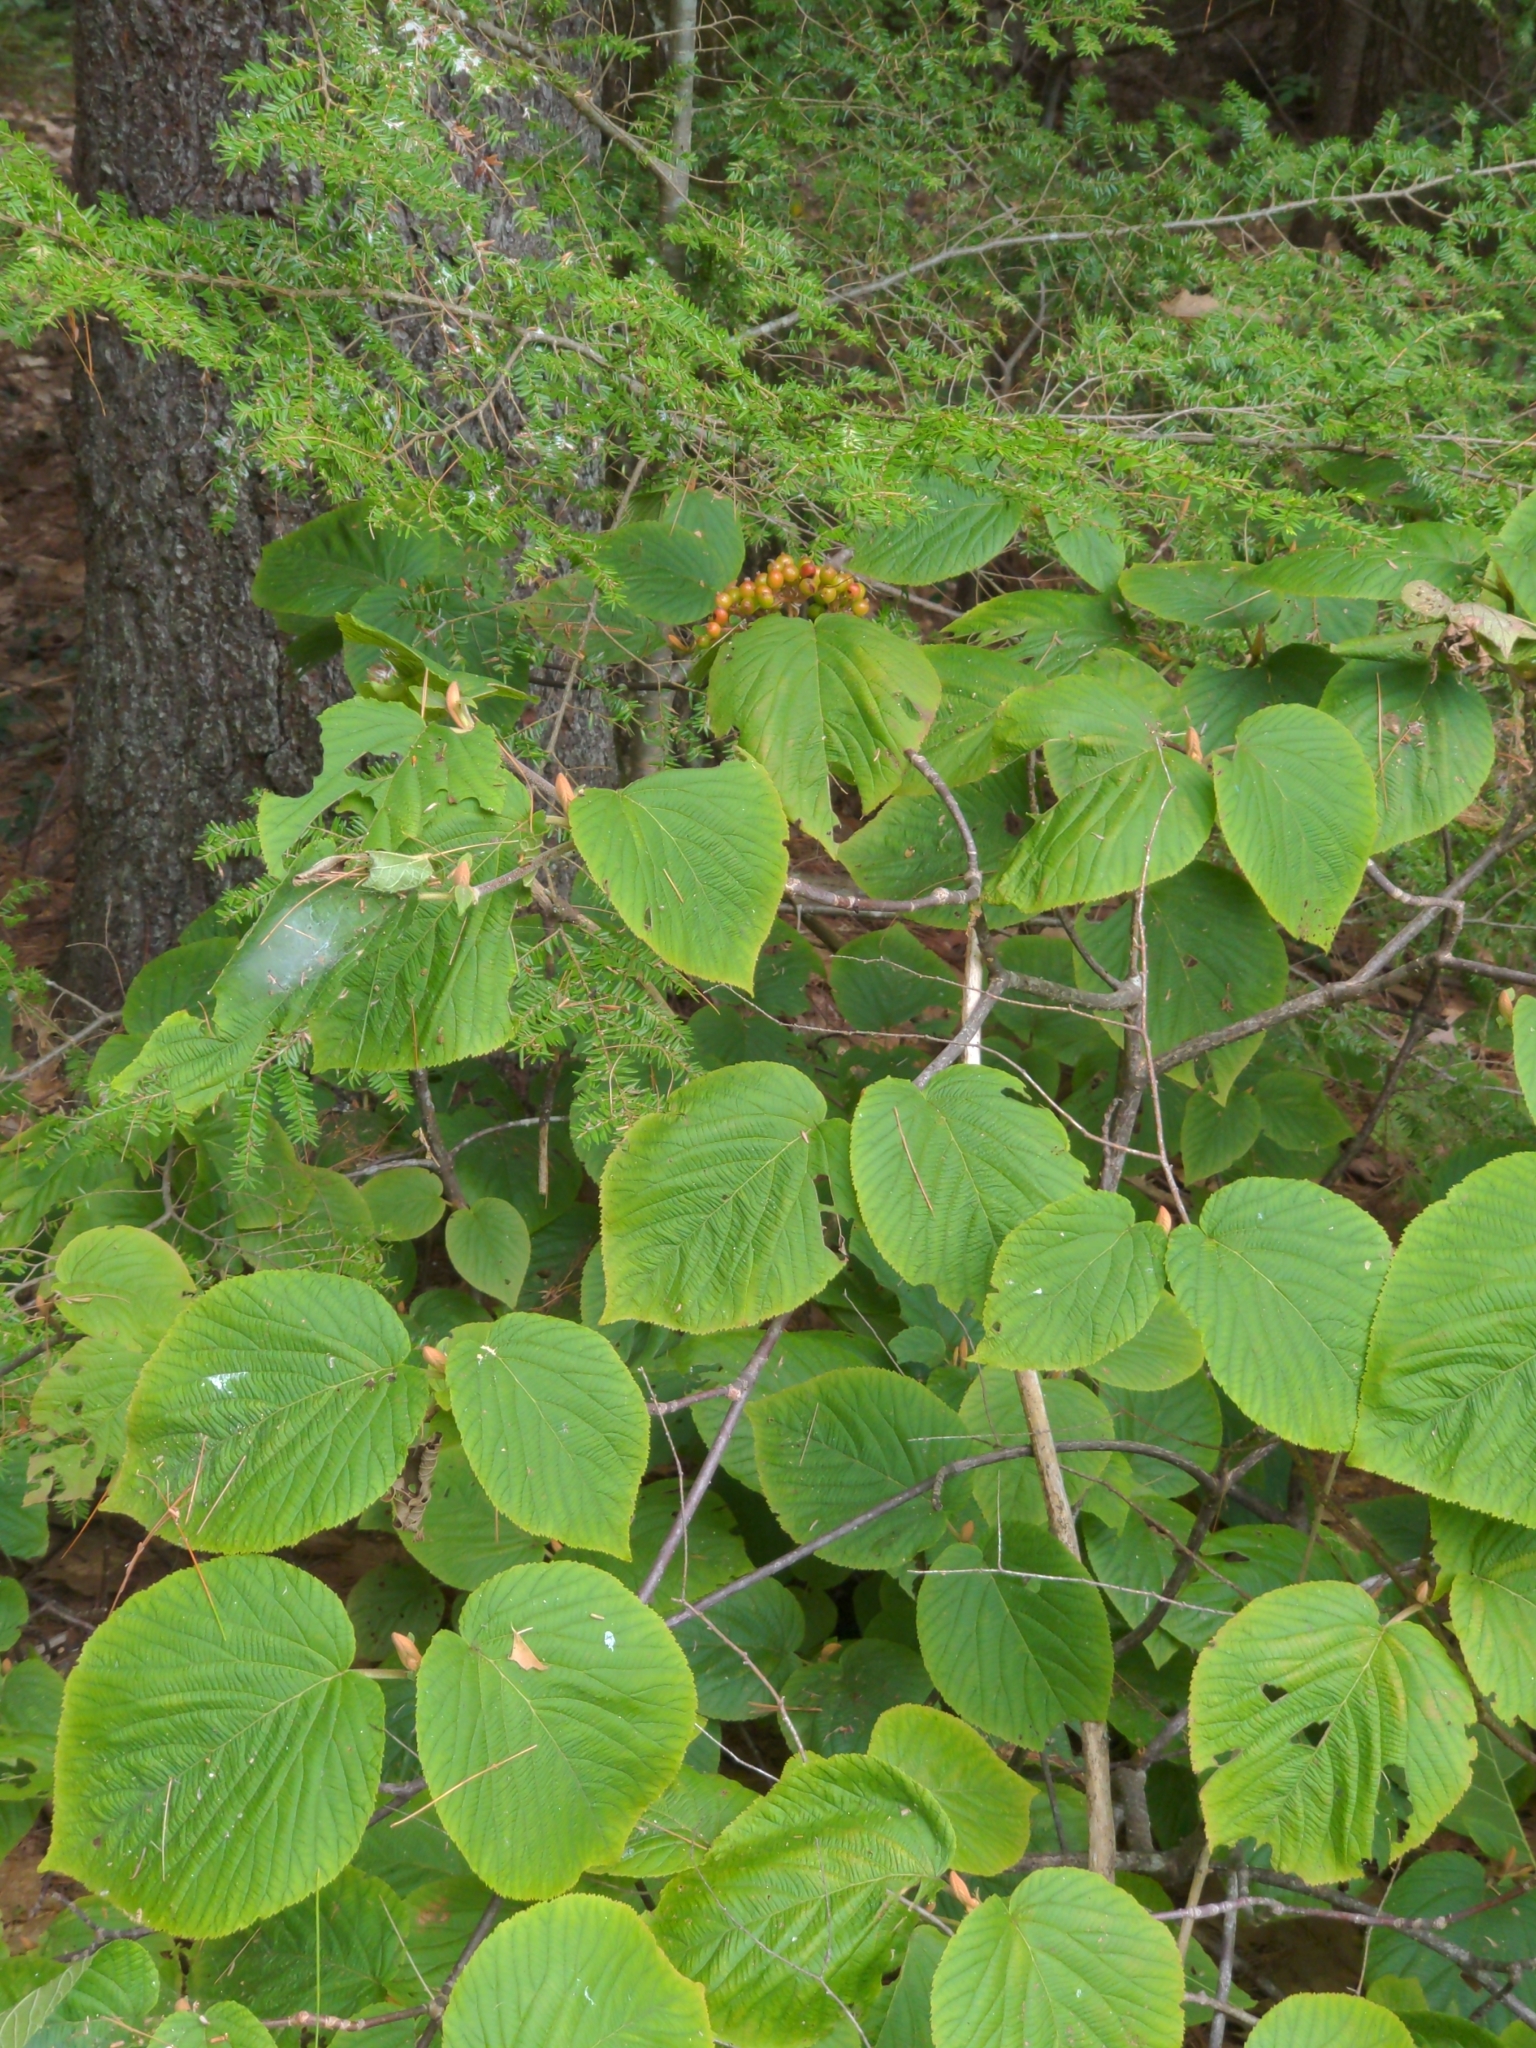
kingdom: Plantae
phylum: Tracheophyta
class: Magnoliopsida
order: Dipsacales
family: Viburnaceae
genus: Viburnum
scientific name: Viburnum lantanoides
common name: Hobblebush
